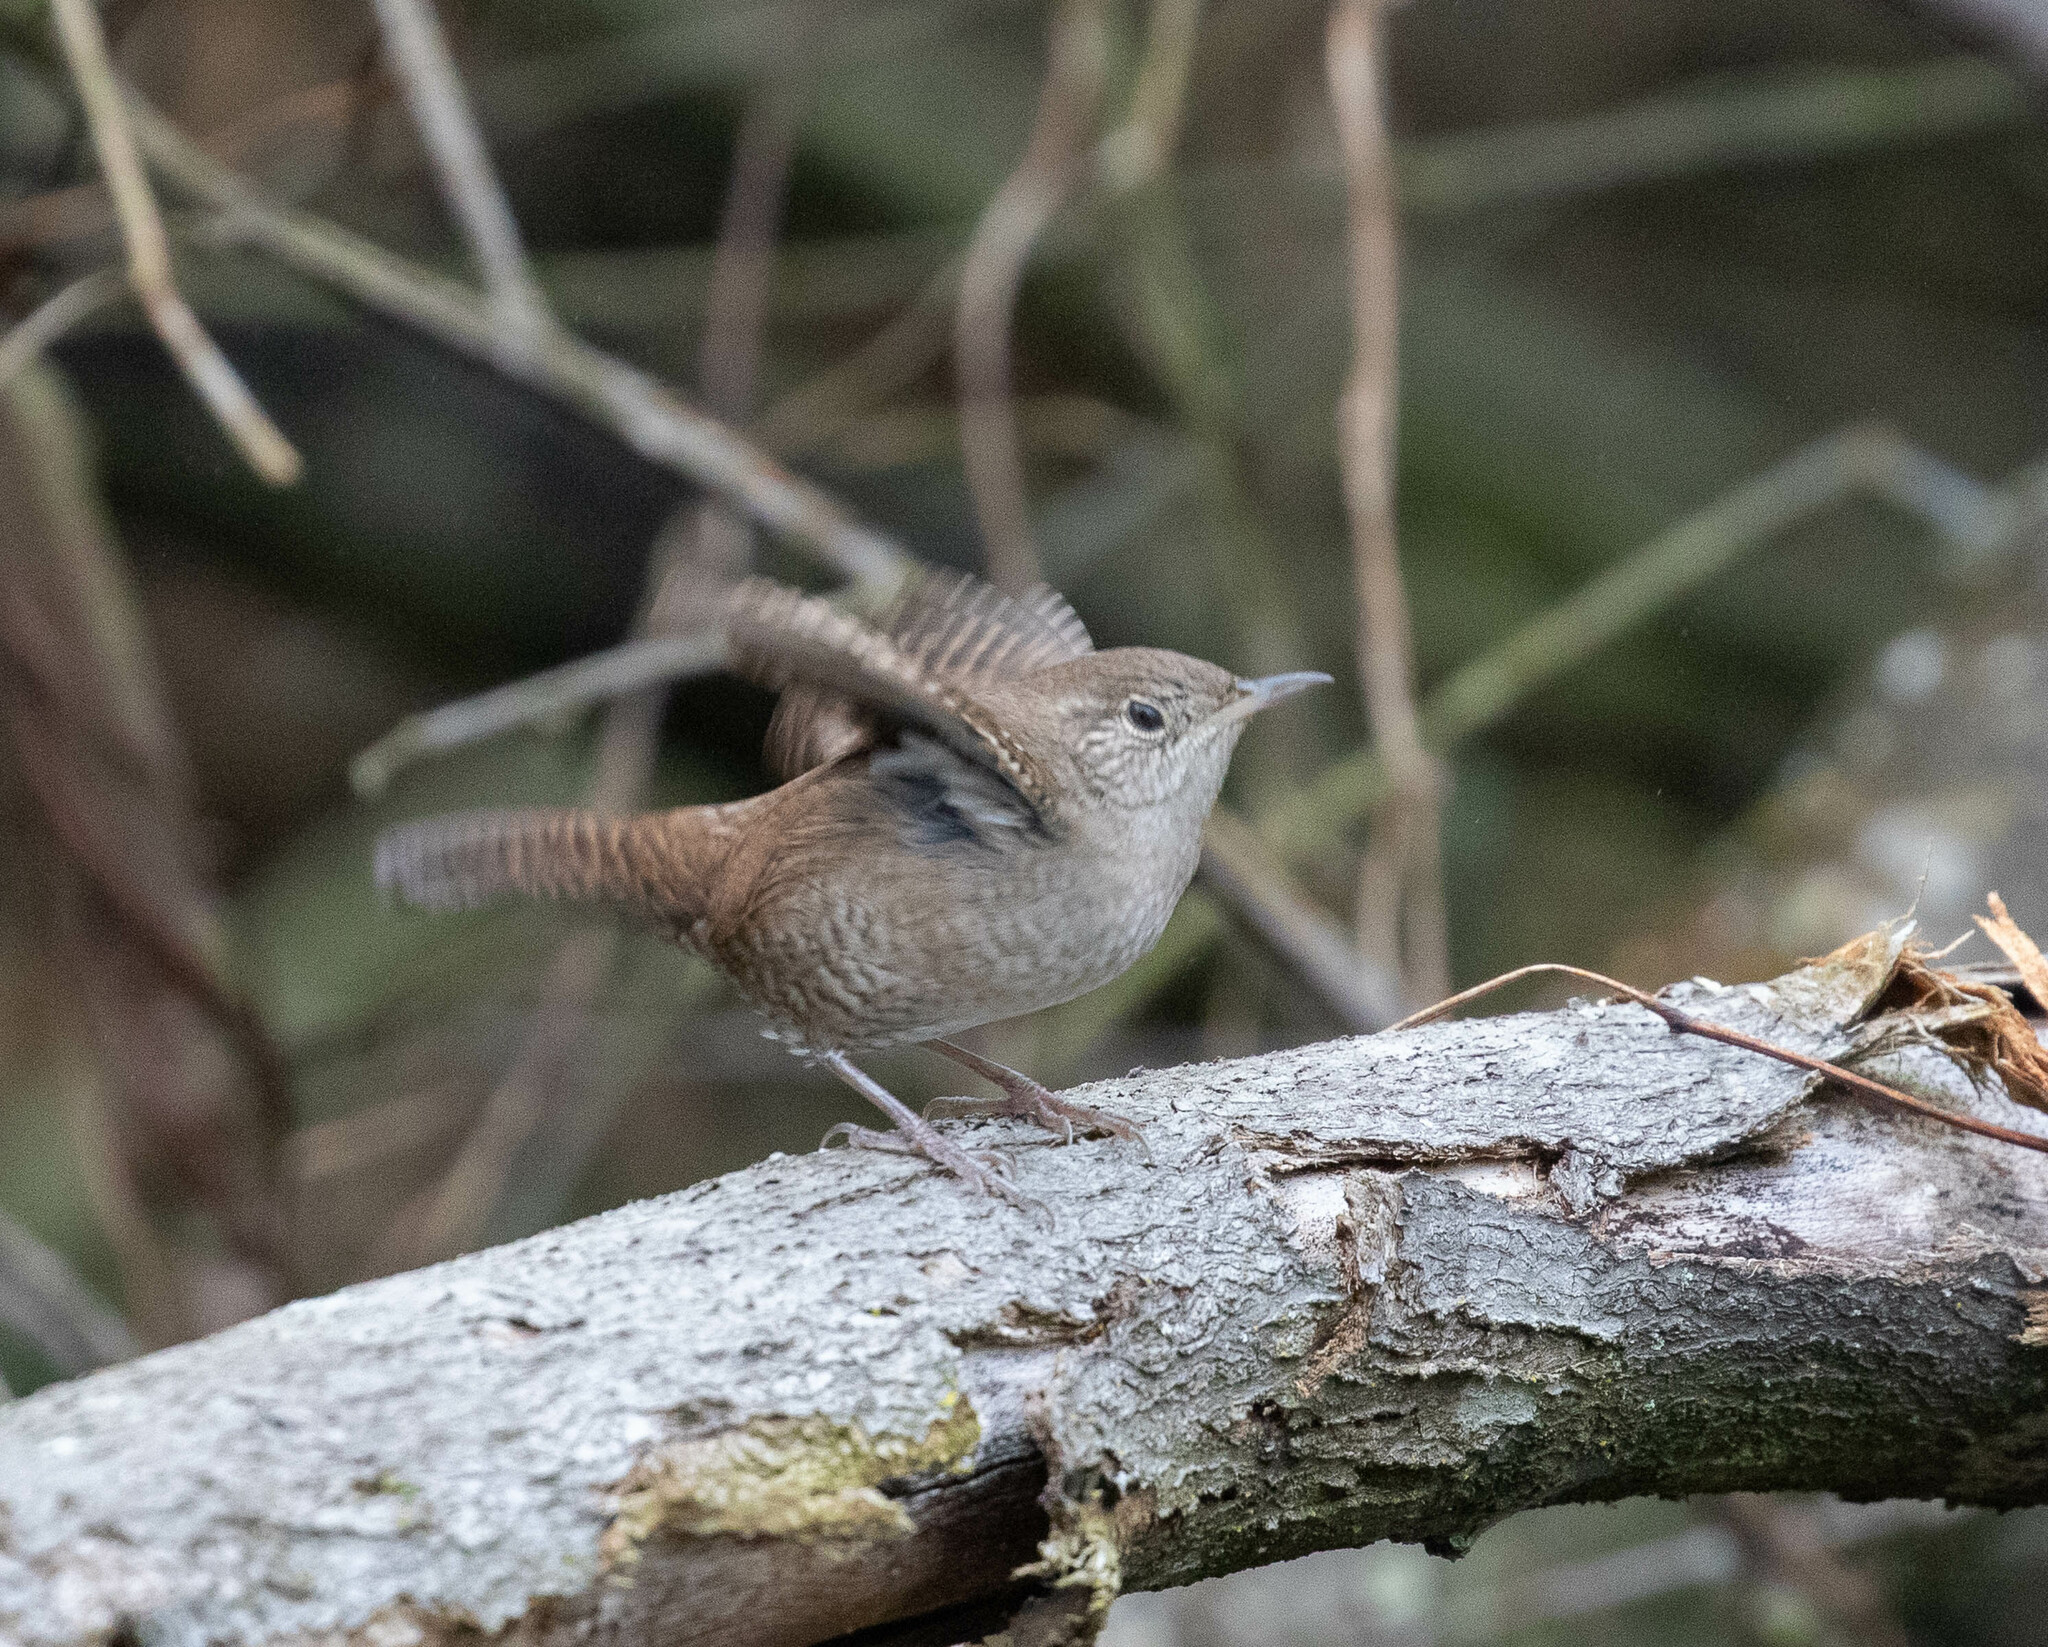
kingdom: Animalia
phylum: Chordata
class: Aves
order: Passeriformes
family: Troglodytidae
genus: Troglodytes
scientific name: Troglodytes aedon
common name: House wren
